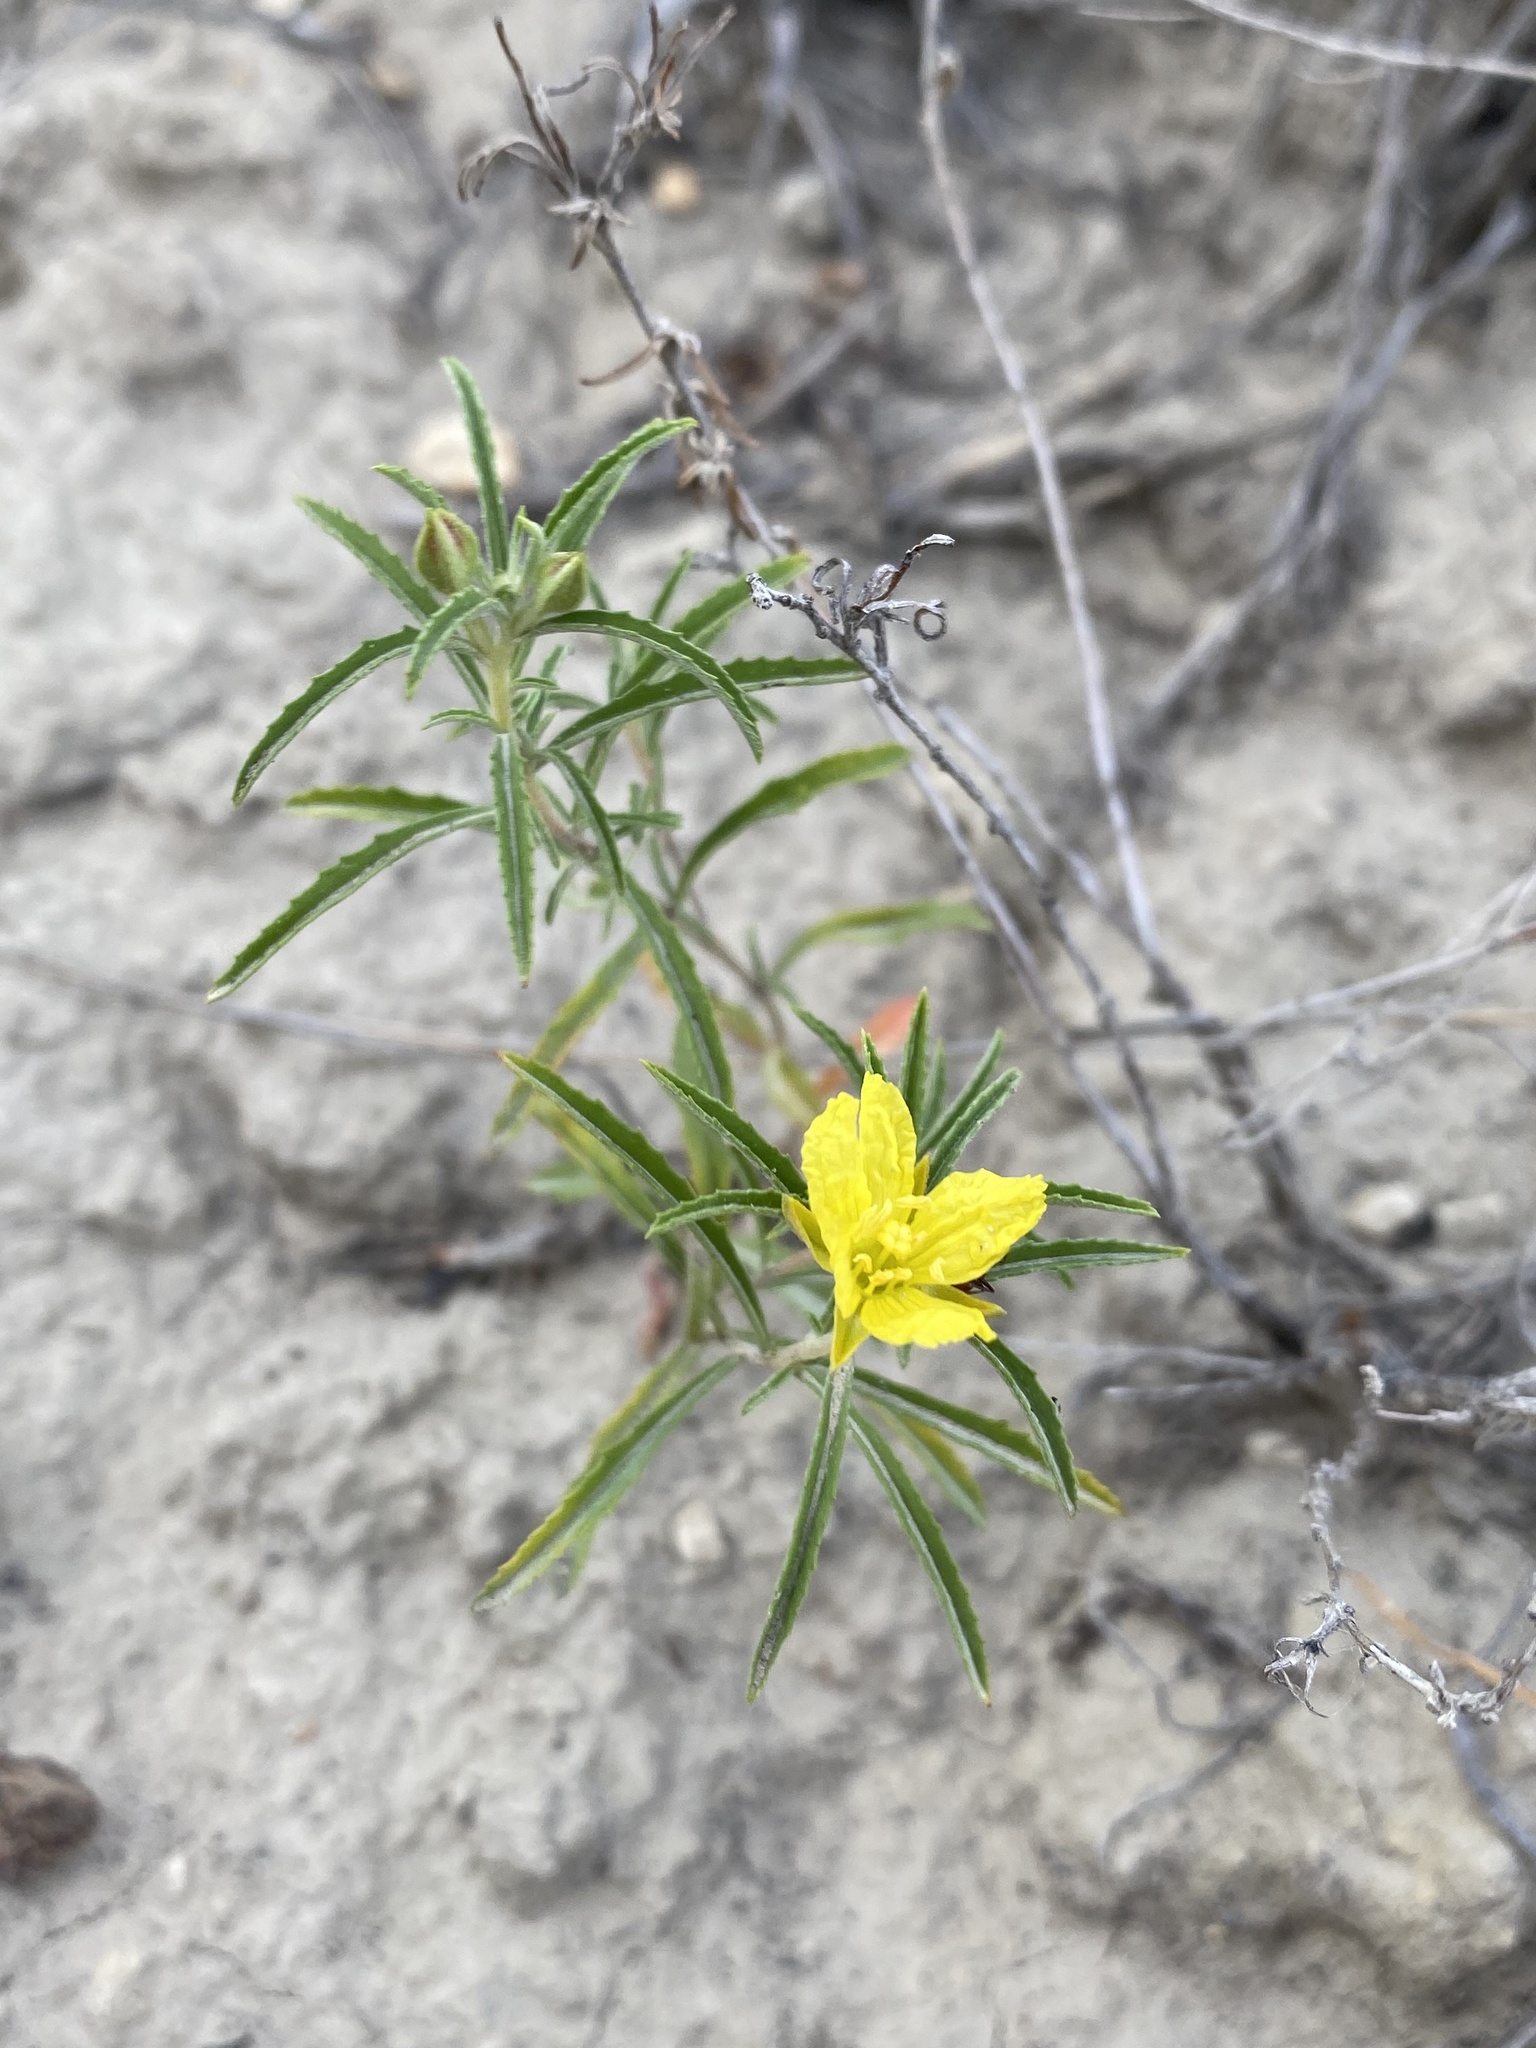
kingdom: Plantae
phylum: Tracheophyta
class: Magnoliopsida
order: Myrtales
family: Onagraceae
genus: Oenothera
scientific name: Oenothera serrulata
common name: Half-shrub calylophus
